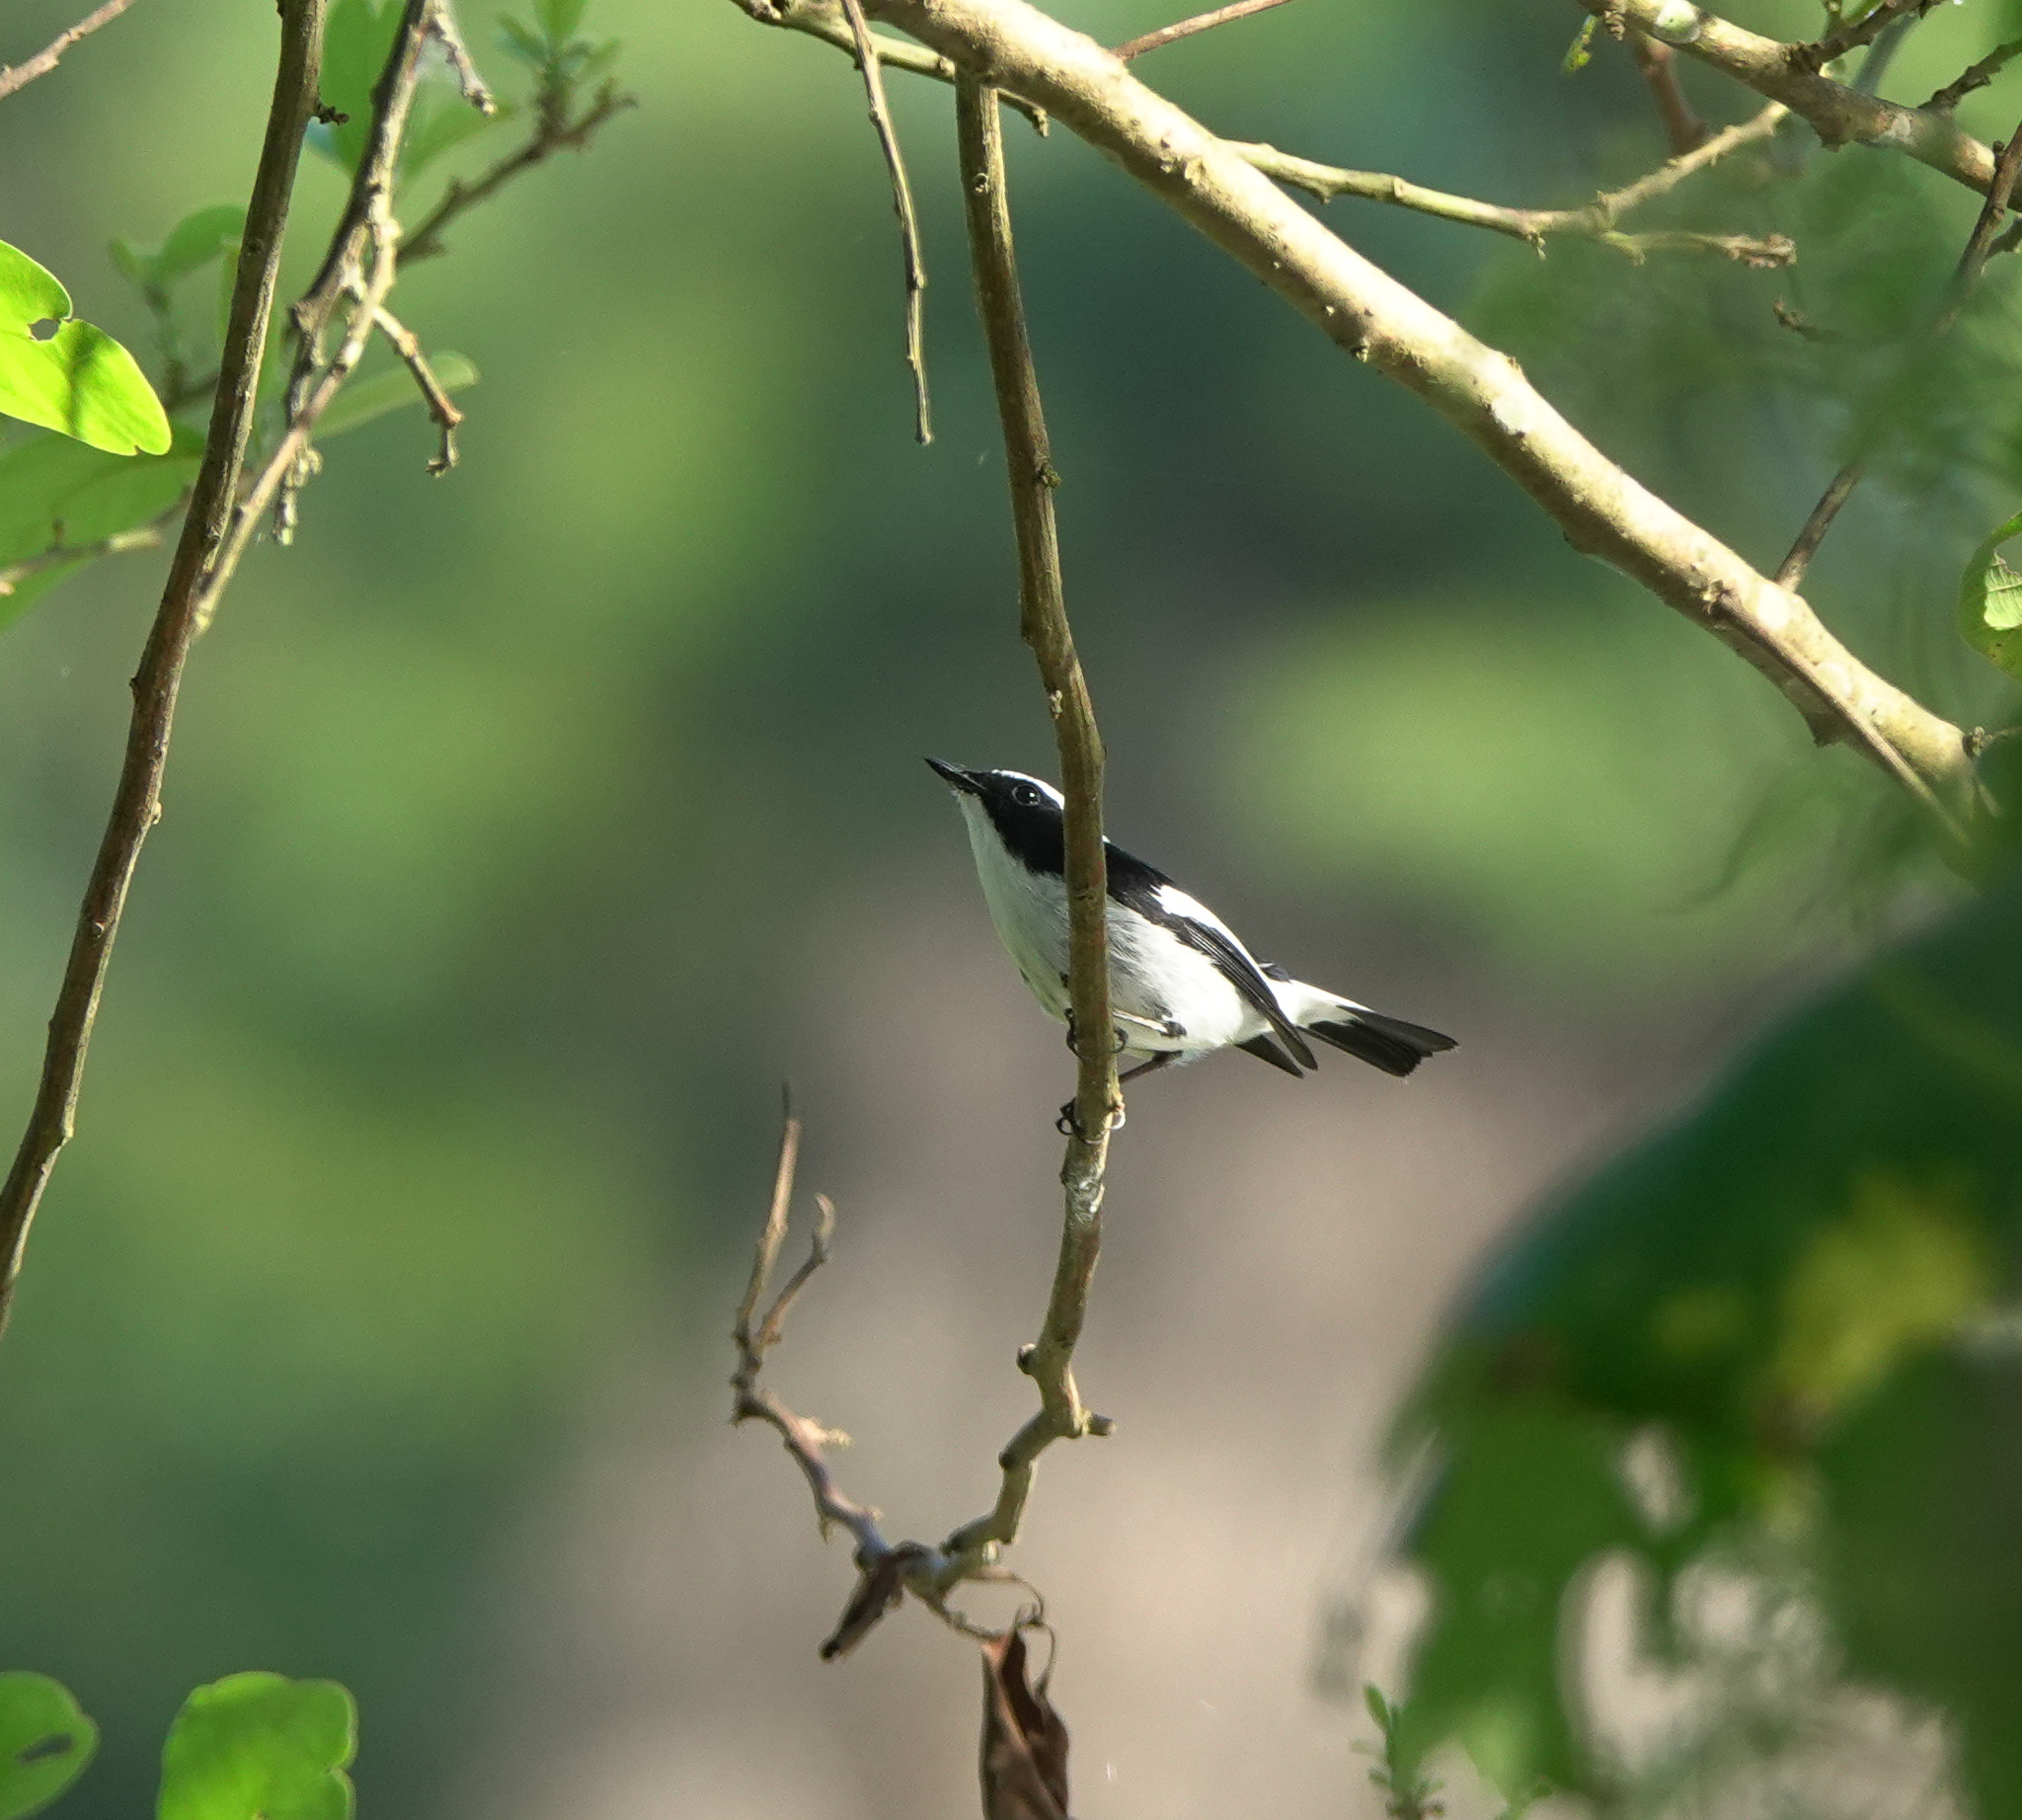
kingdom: Animalia
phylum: Chordata
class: Aves
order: Passeriformes
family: Muscicapidae
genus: Ficedula
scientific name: Ficedula westermanni
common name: Little pied flycatcher
